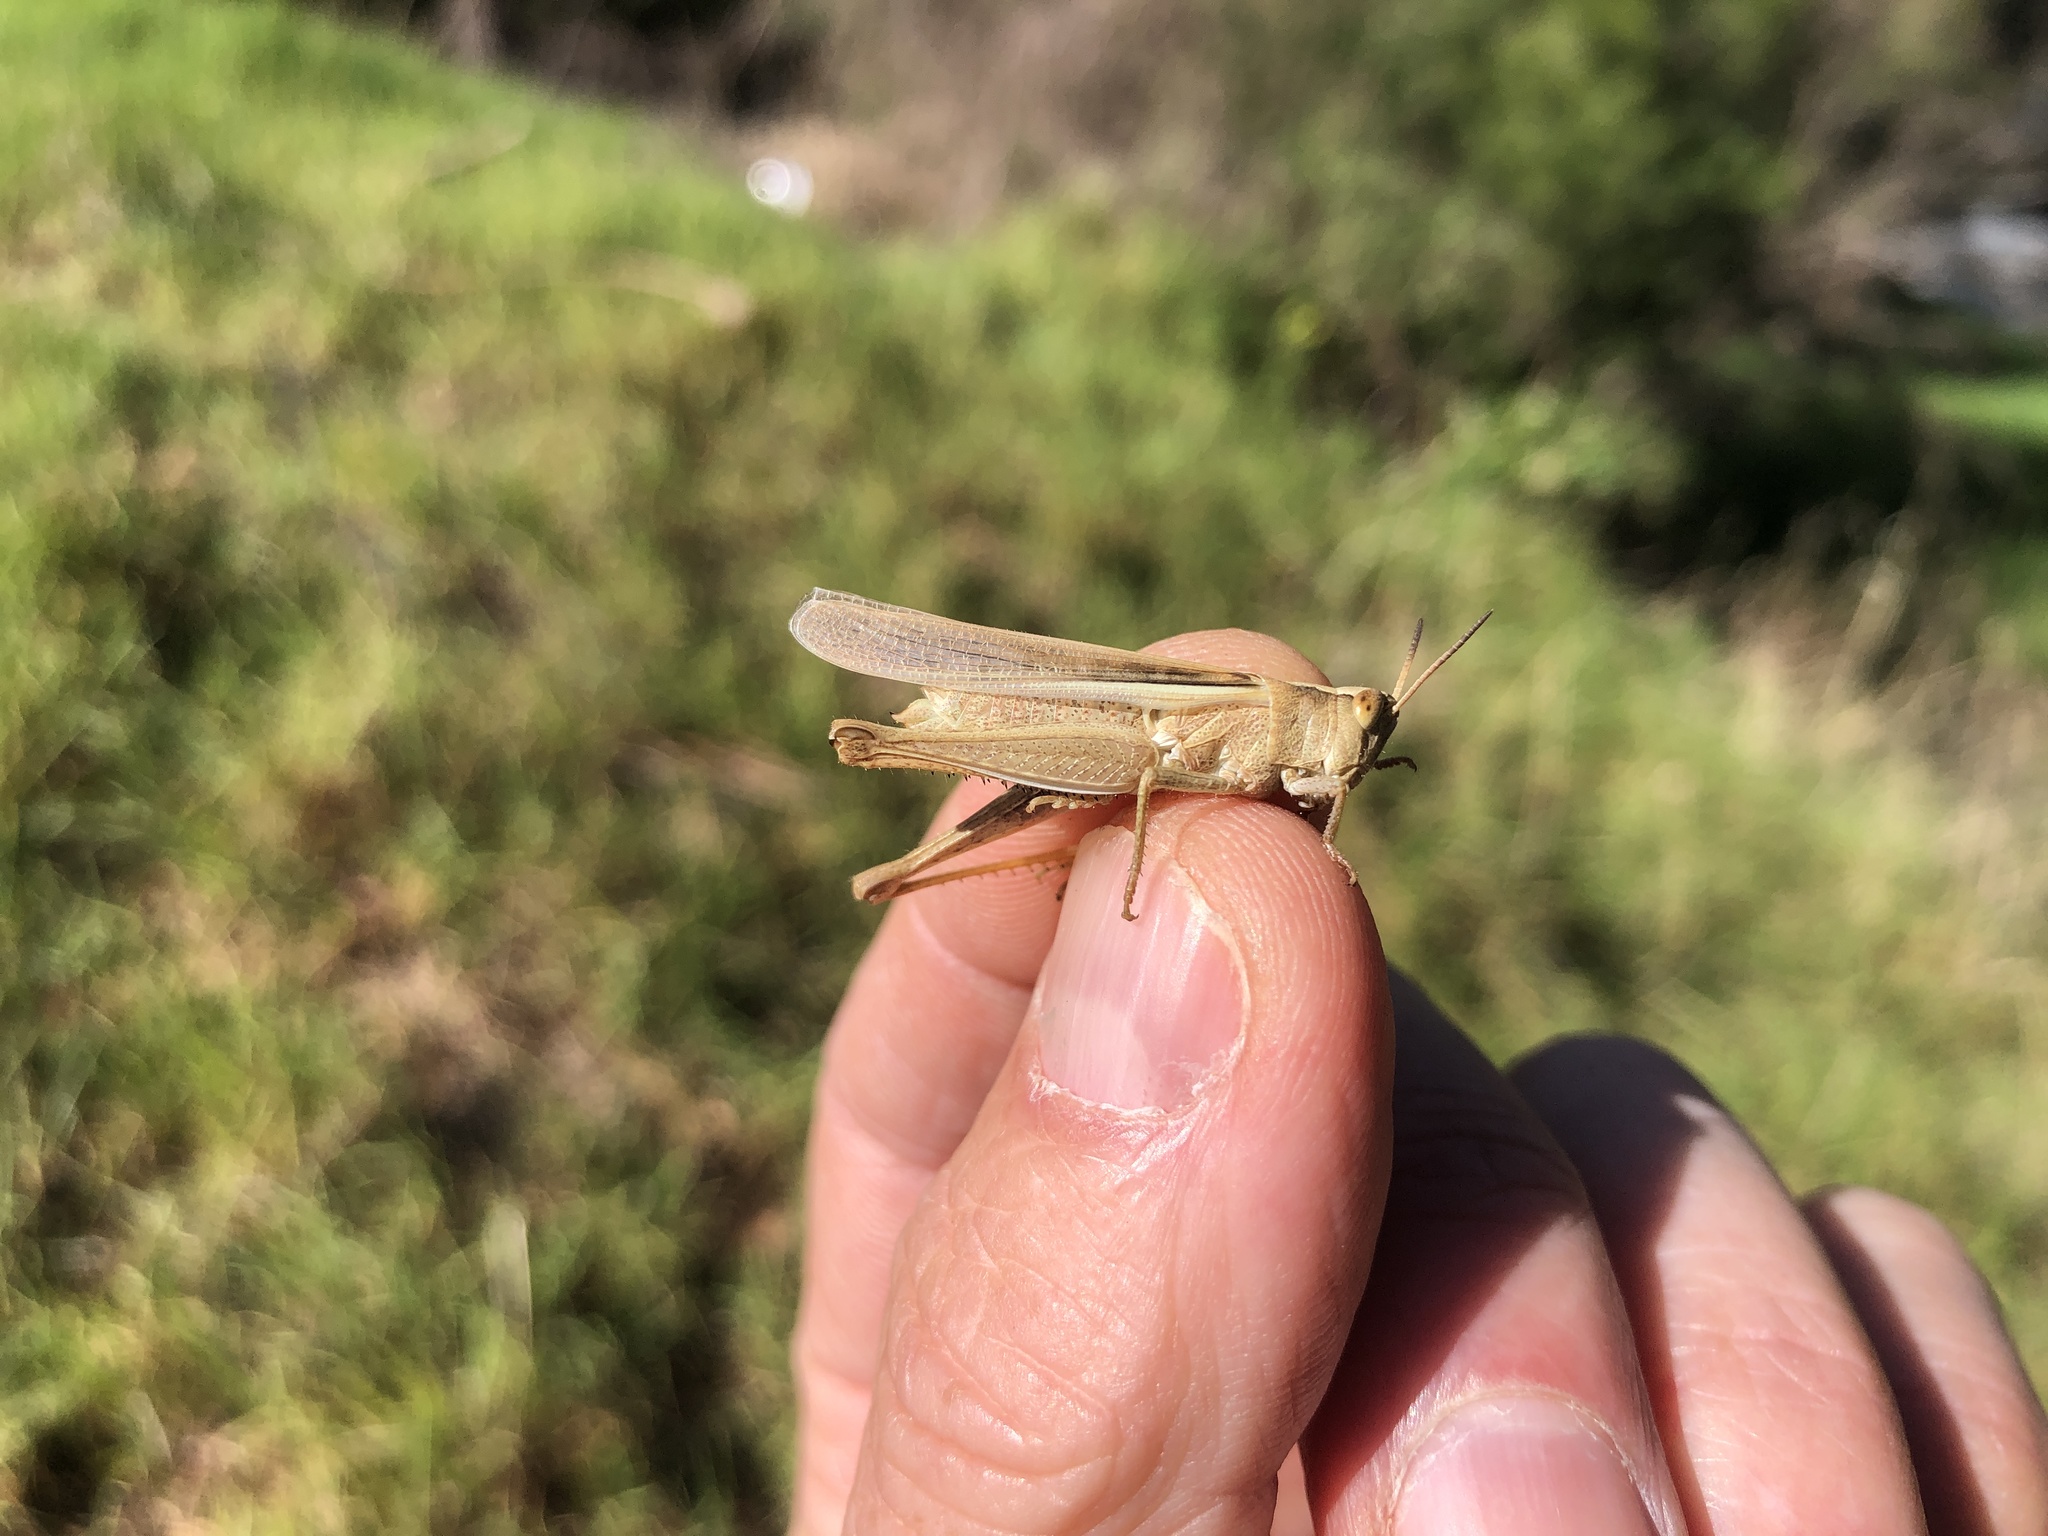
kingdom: Animalia
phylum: Arthropoda
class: Insecta
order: Orthoptera
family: Acrididae
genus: Schizobothrus
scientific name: Schizobothrus flavovittatus
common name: Disappearing grasshopper
